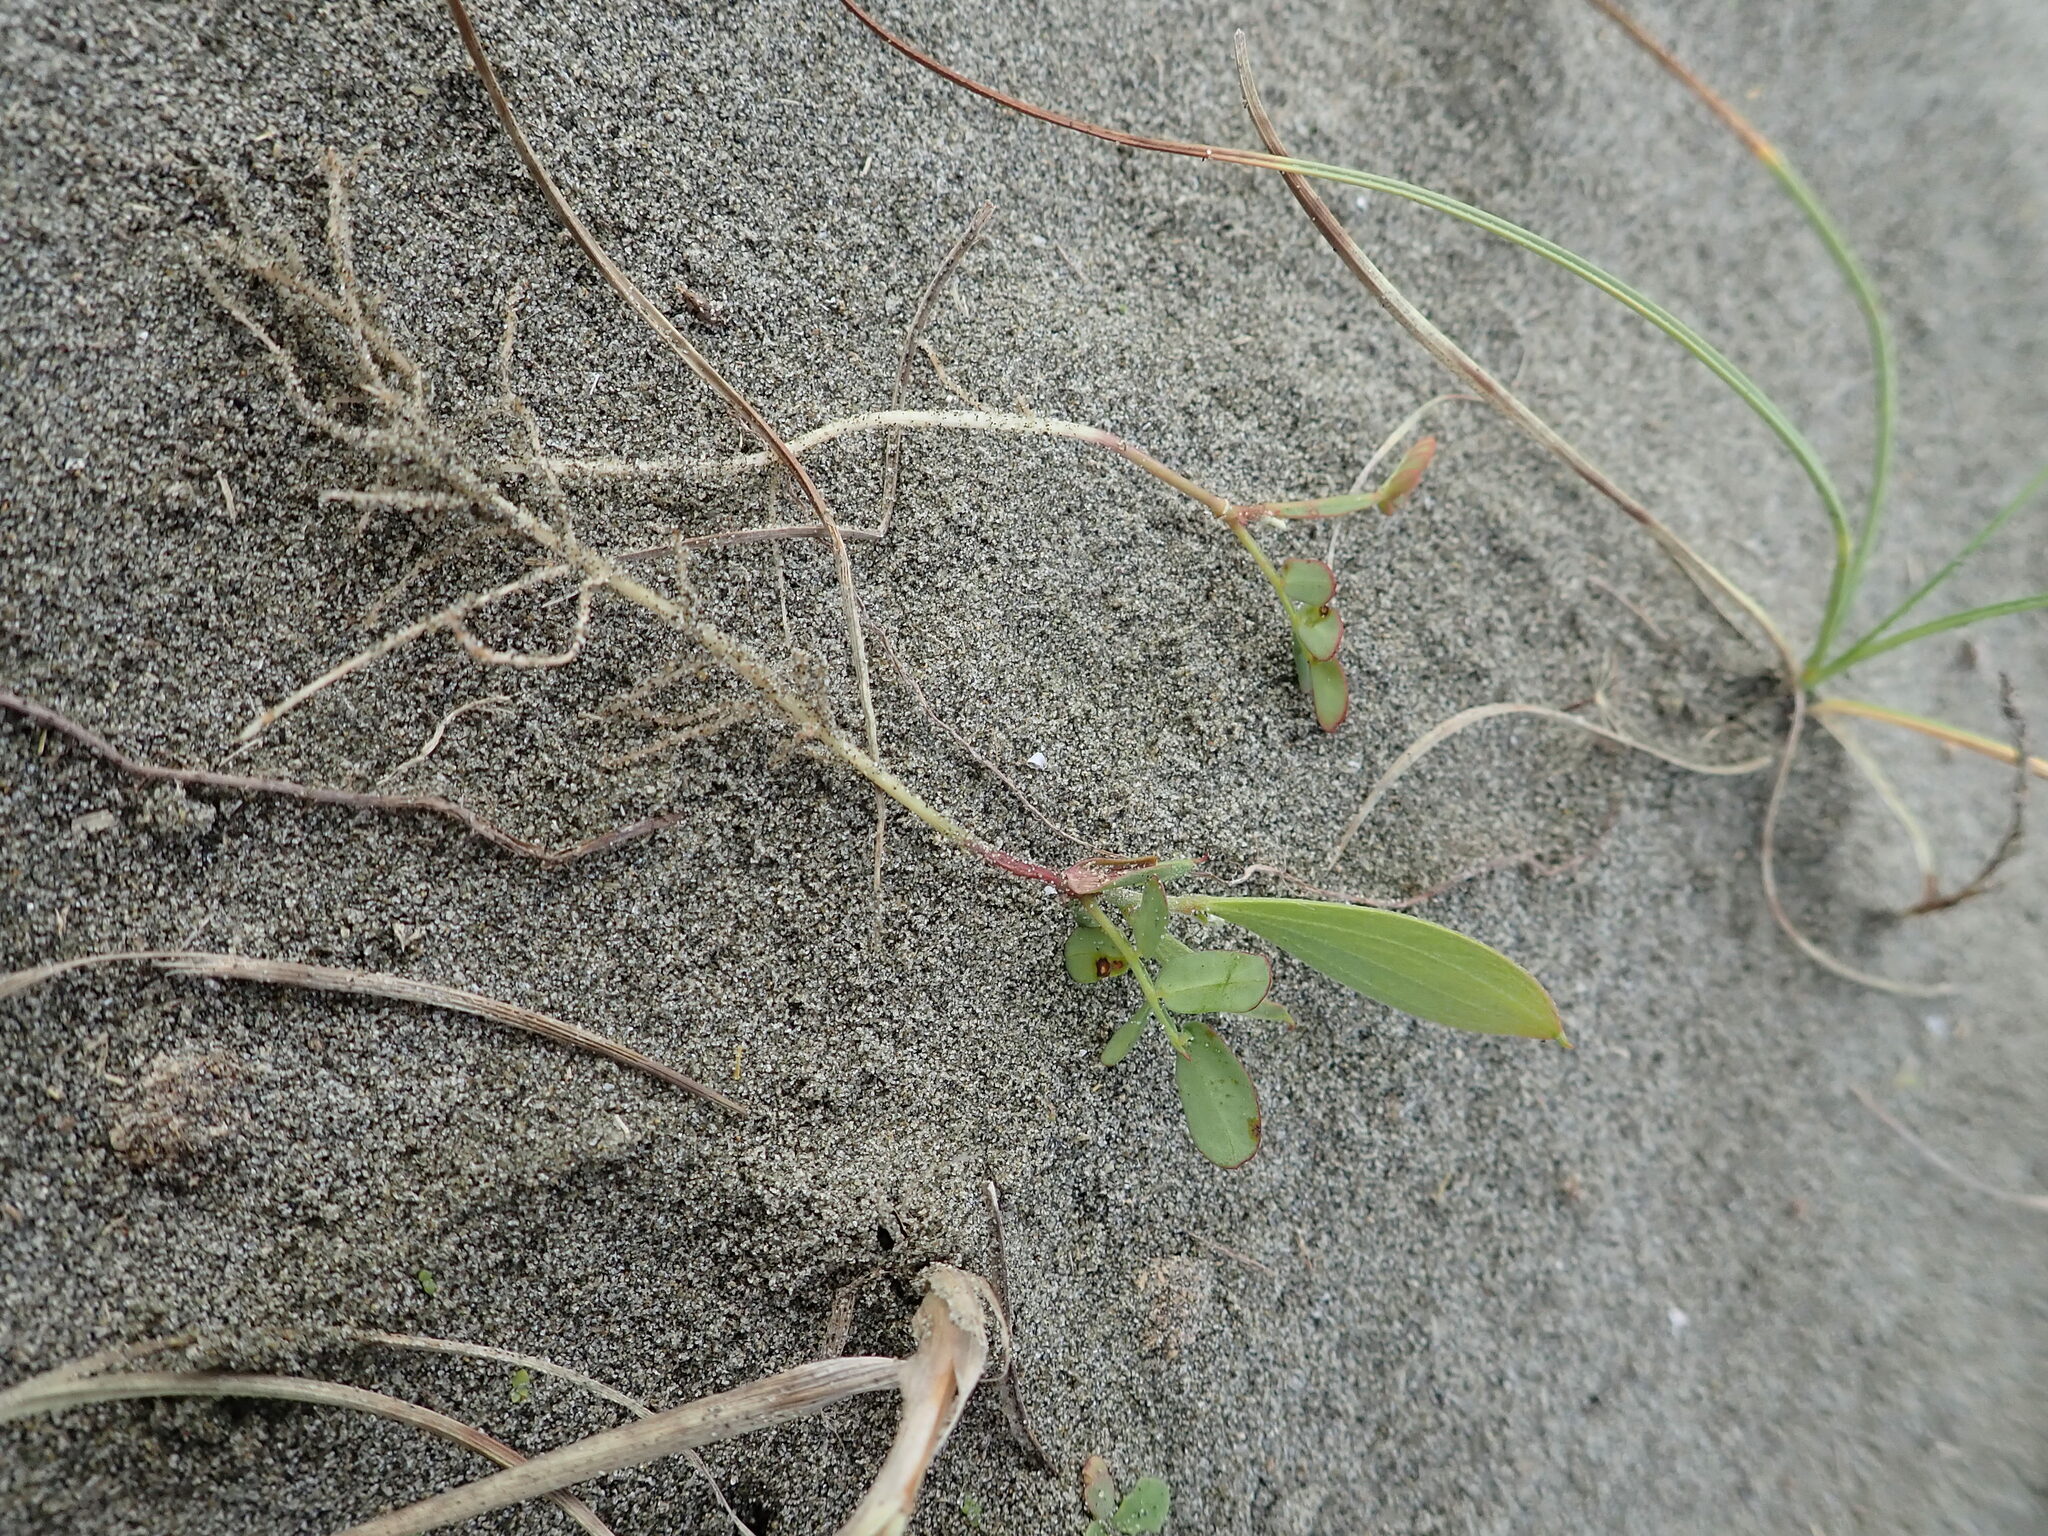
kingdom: Plantae
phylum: Tracheophyta
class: Magnoliopsida
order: Fabales
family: Fabaceae
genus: Acacia
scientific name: Acacia longifolia
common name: Sydney golden wattle
